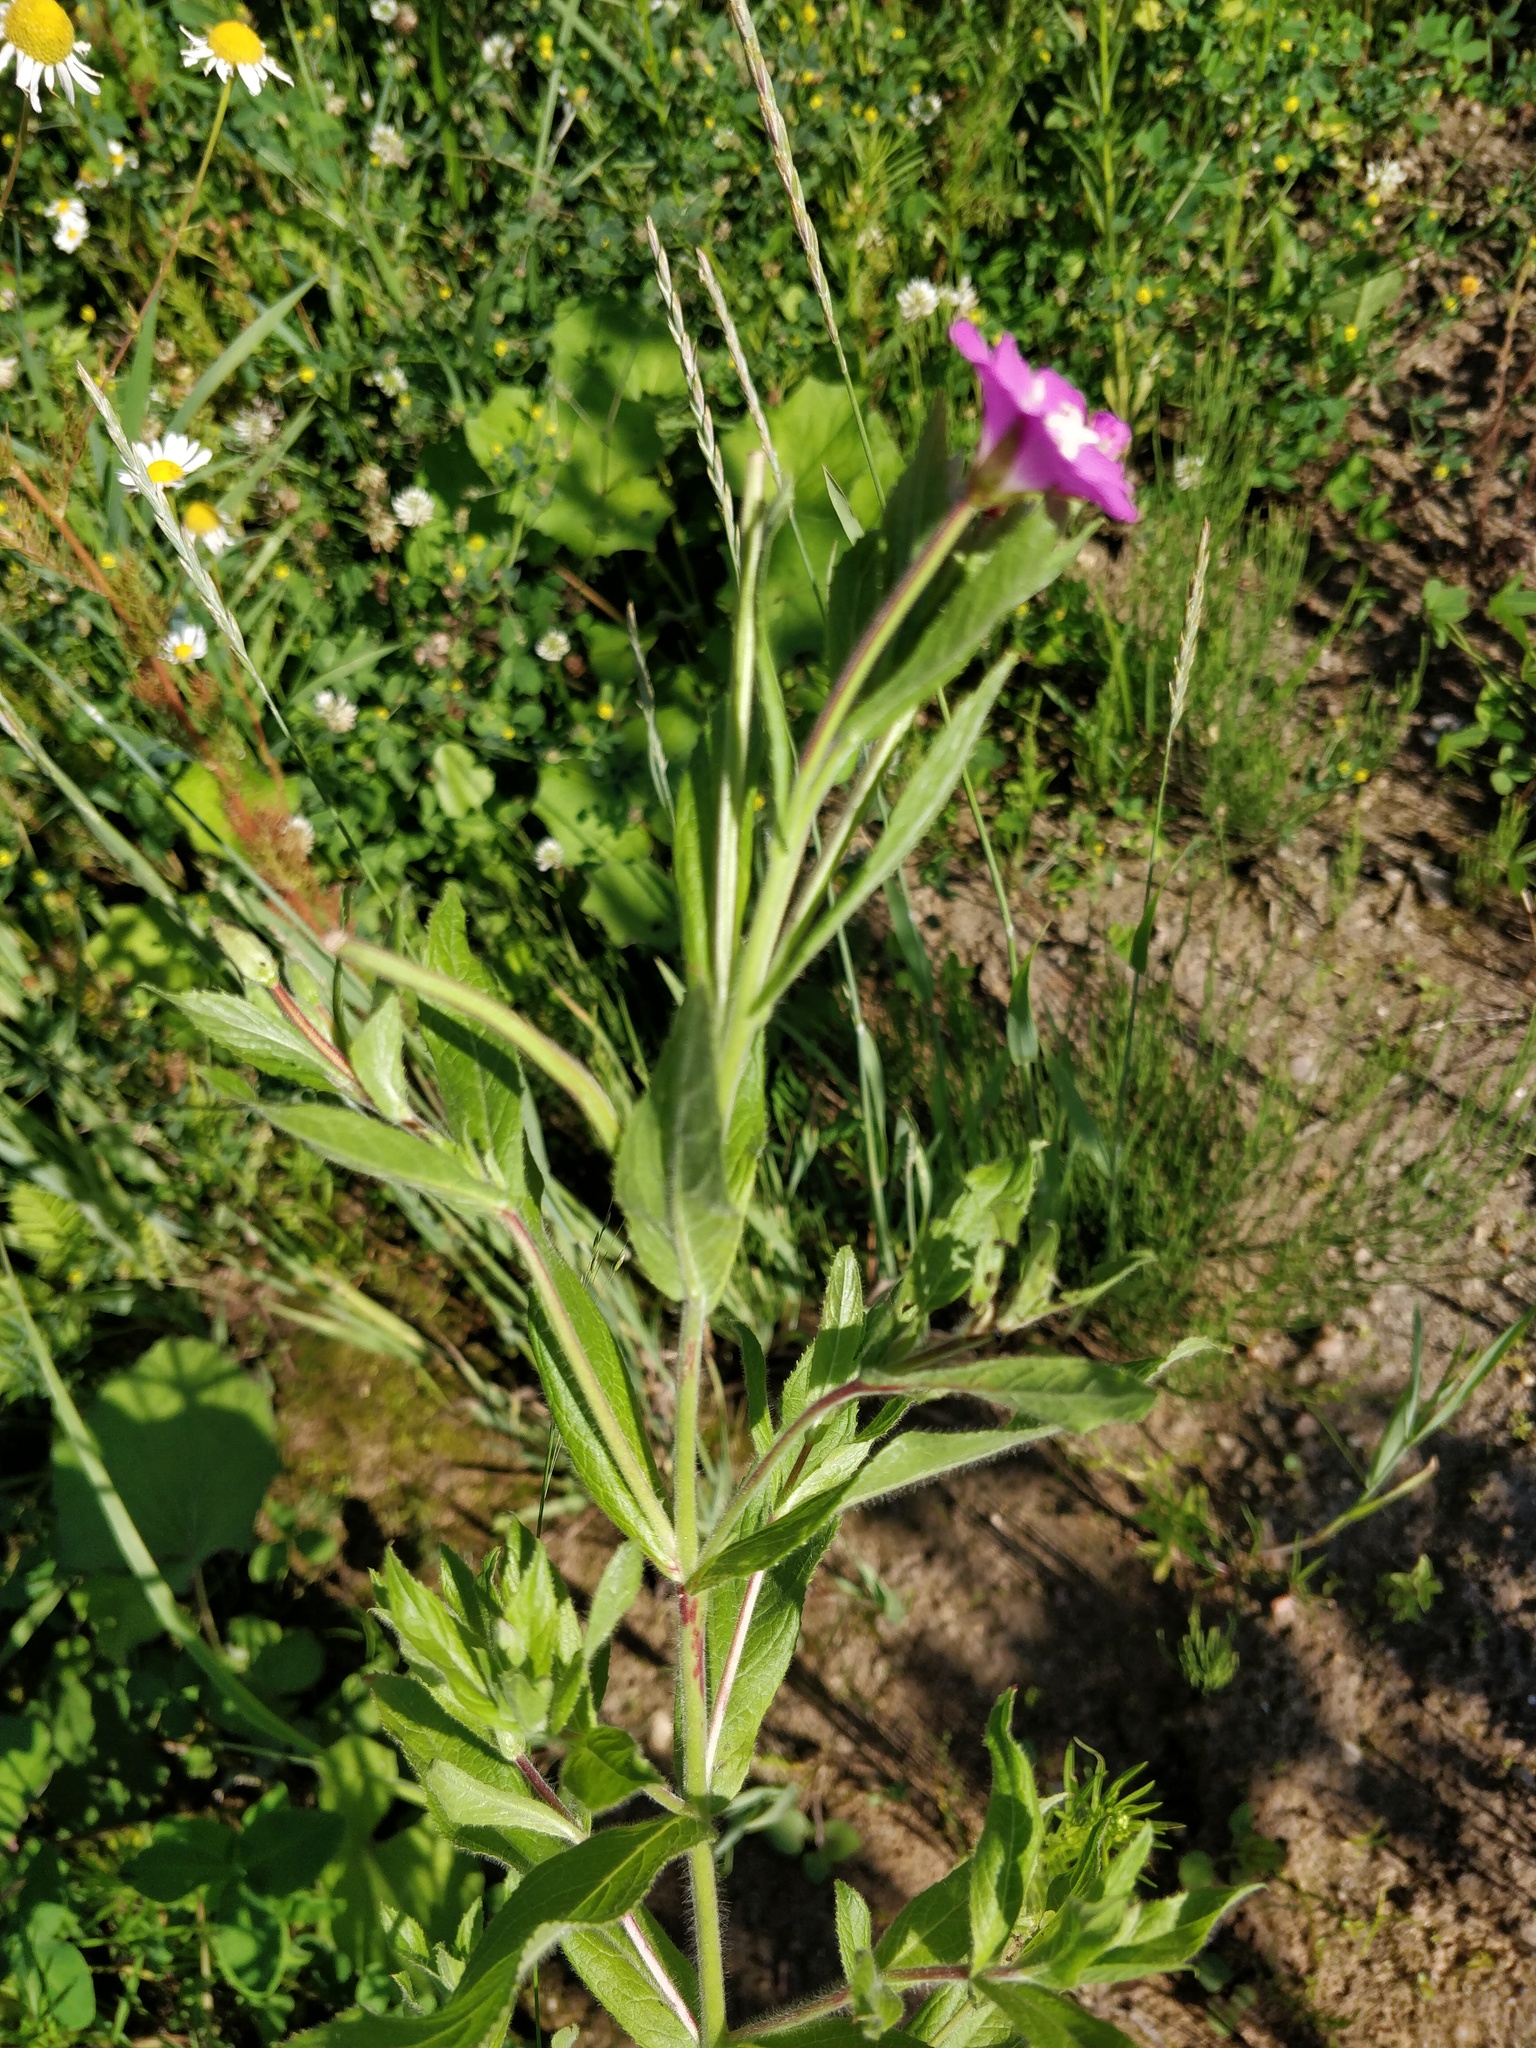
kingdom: Plantae
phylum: Tracheophyta
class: Magnoliopsida
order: Myrtales
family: Onagraceae
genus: Epilobium
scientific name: Epilobium hirsutum
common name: Great willowherb
